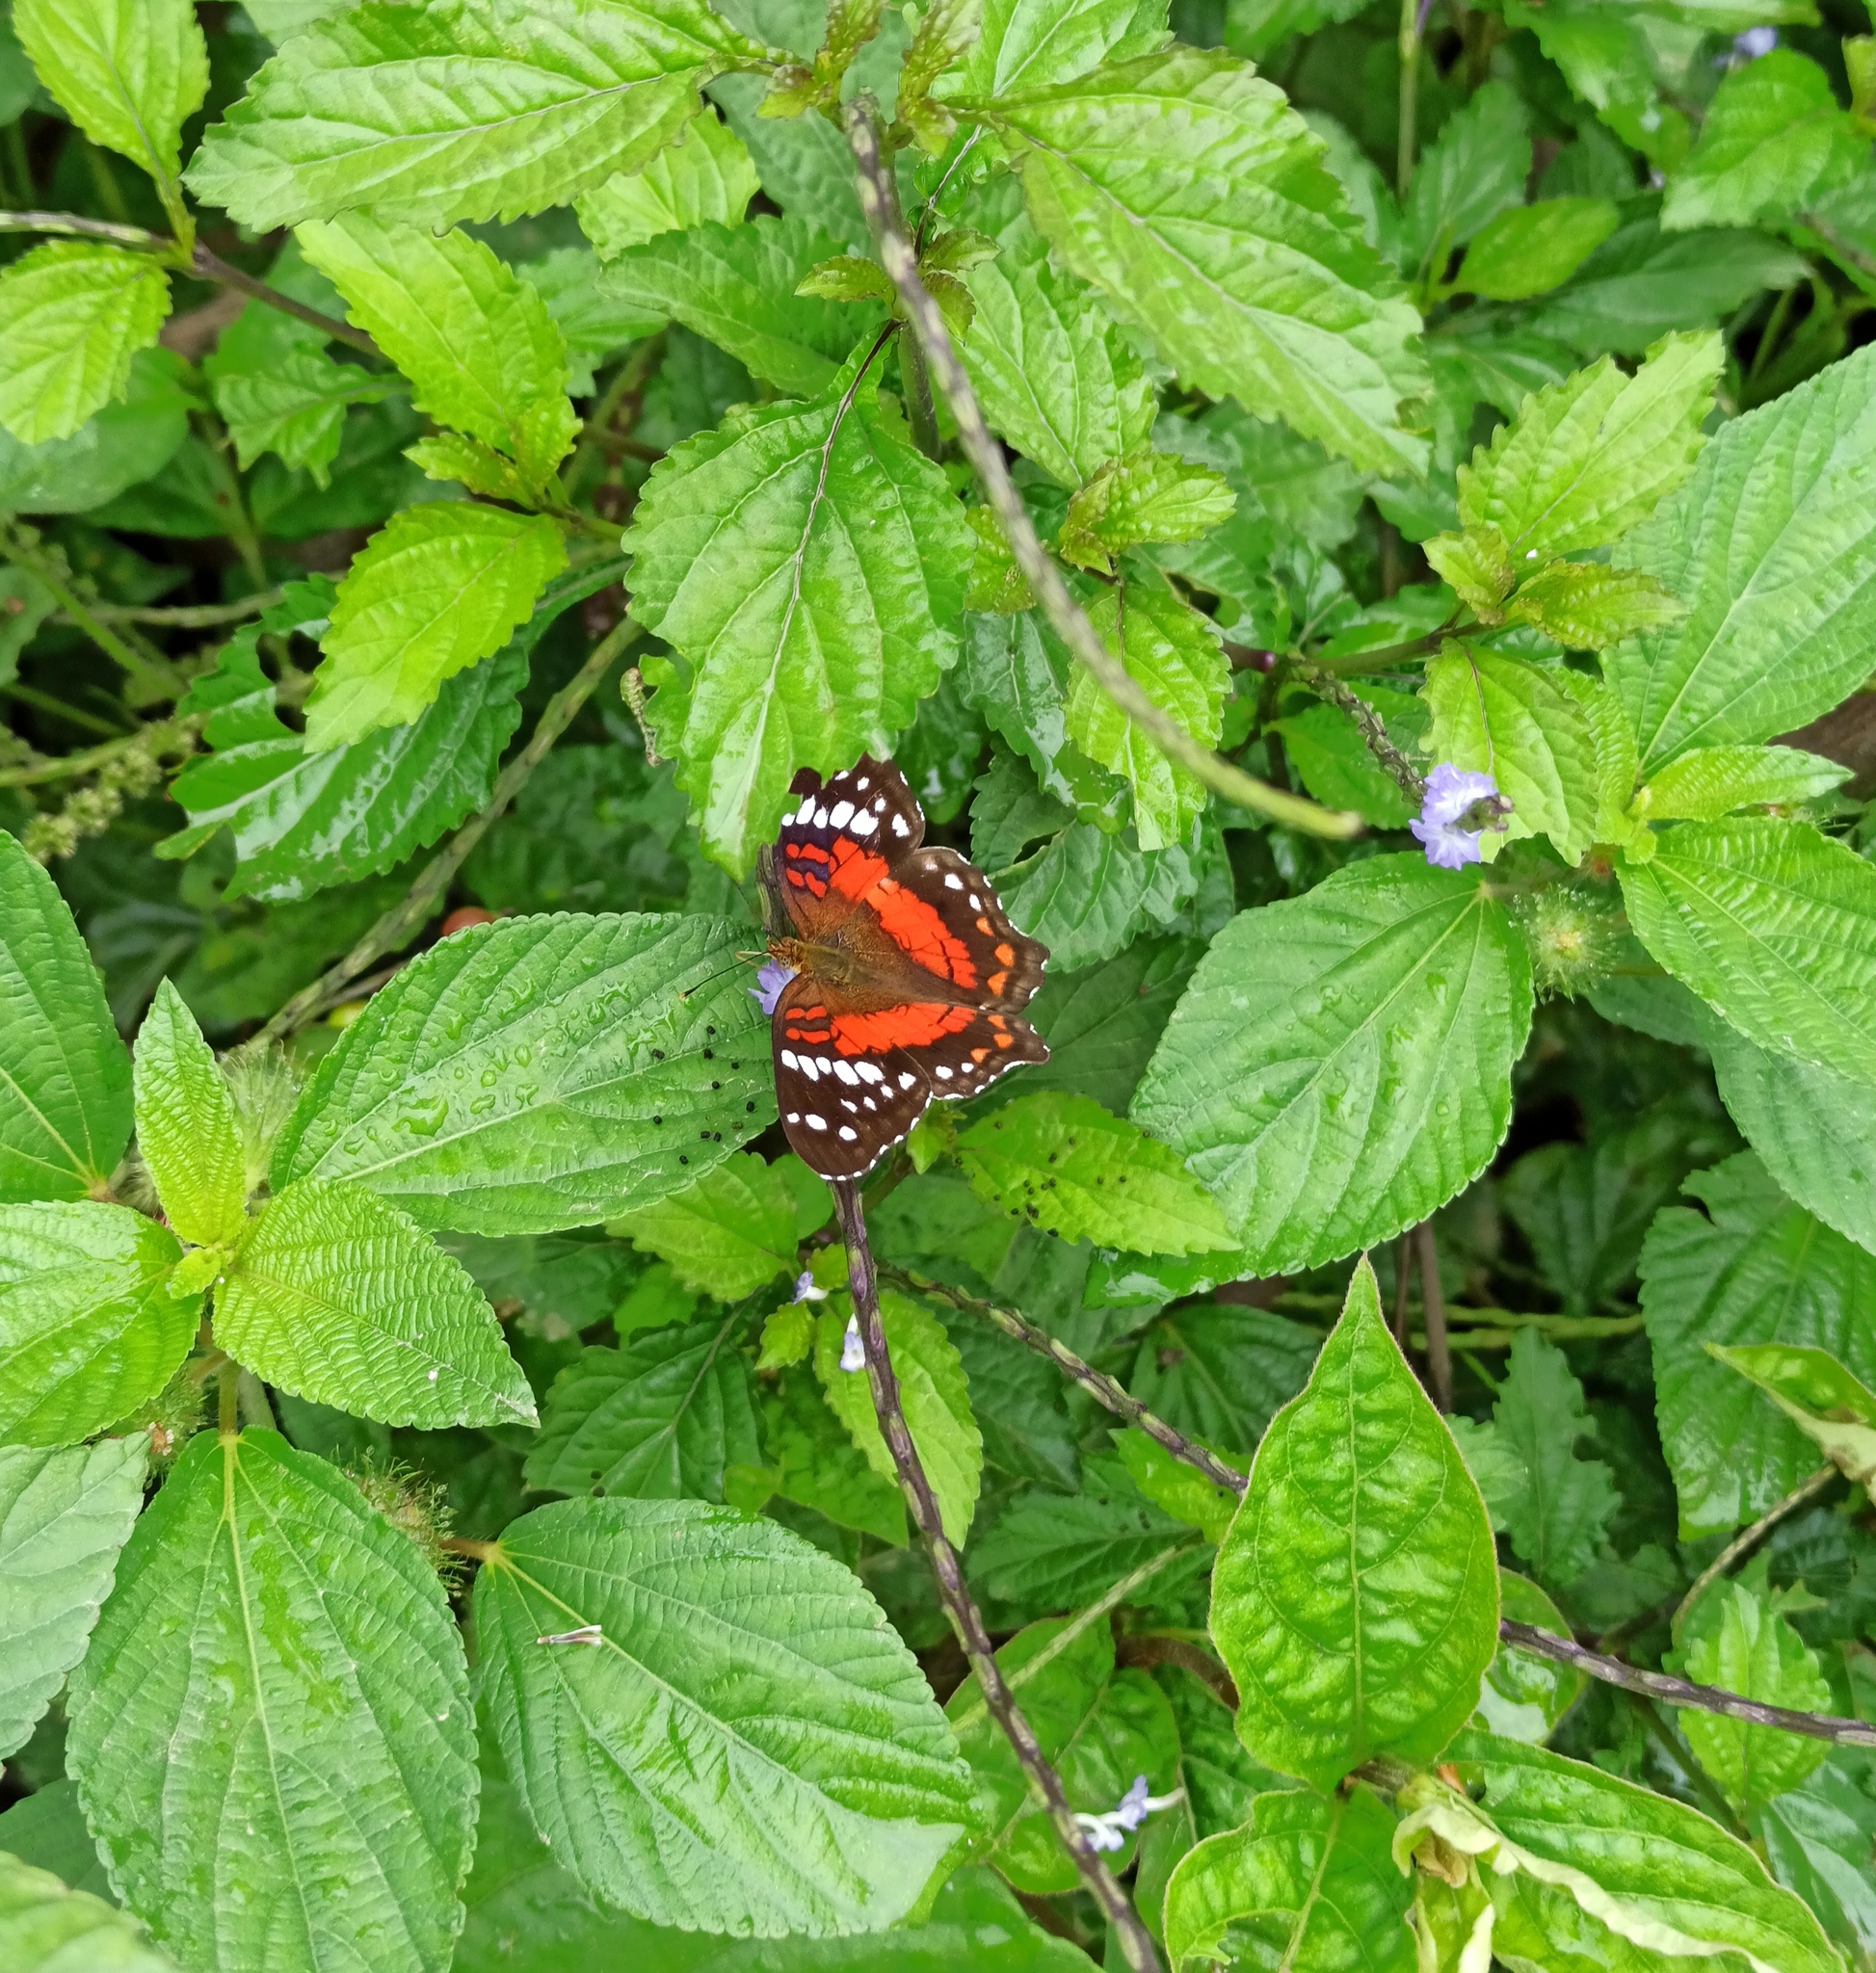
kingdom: Animalia
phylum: Arthropoda
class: Insecta
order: Lepidoptera
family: Nymphalidae
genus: Anartia
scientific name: Anartia amathea
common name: Red peacock
